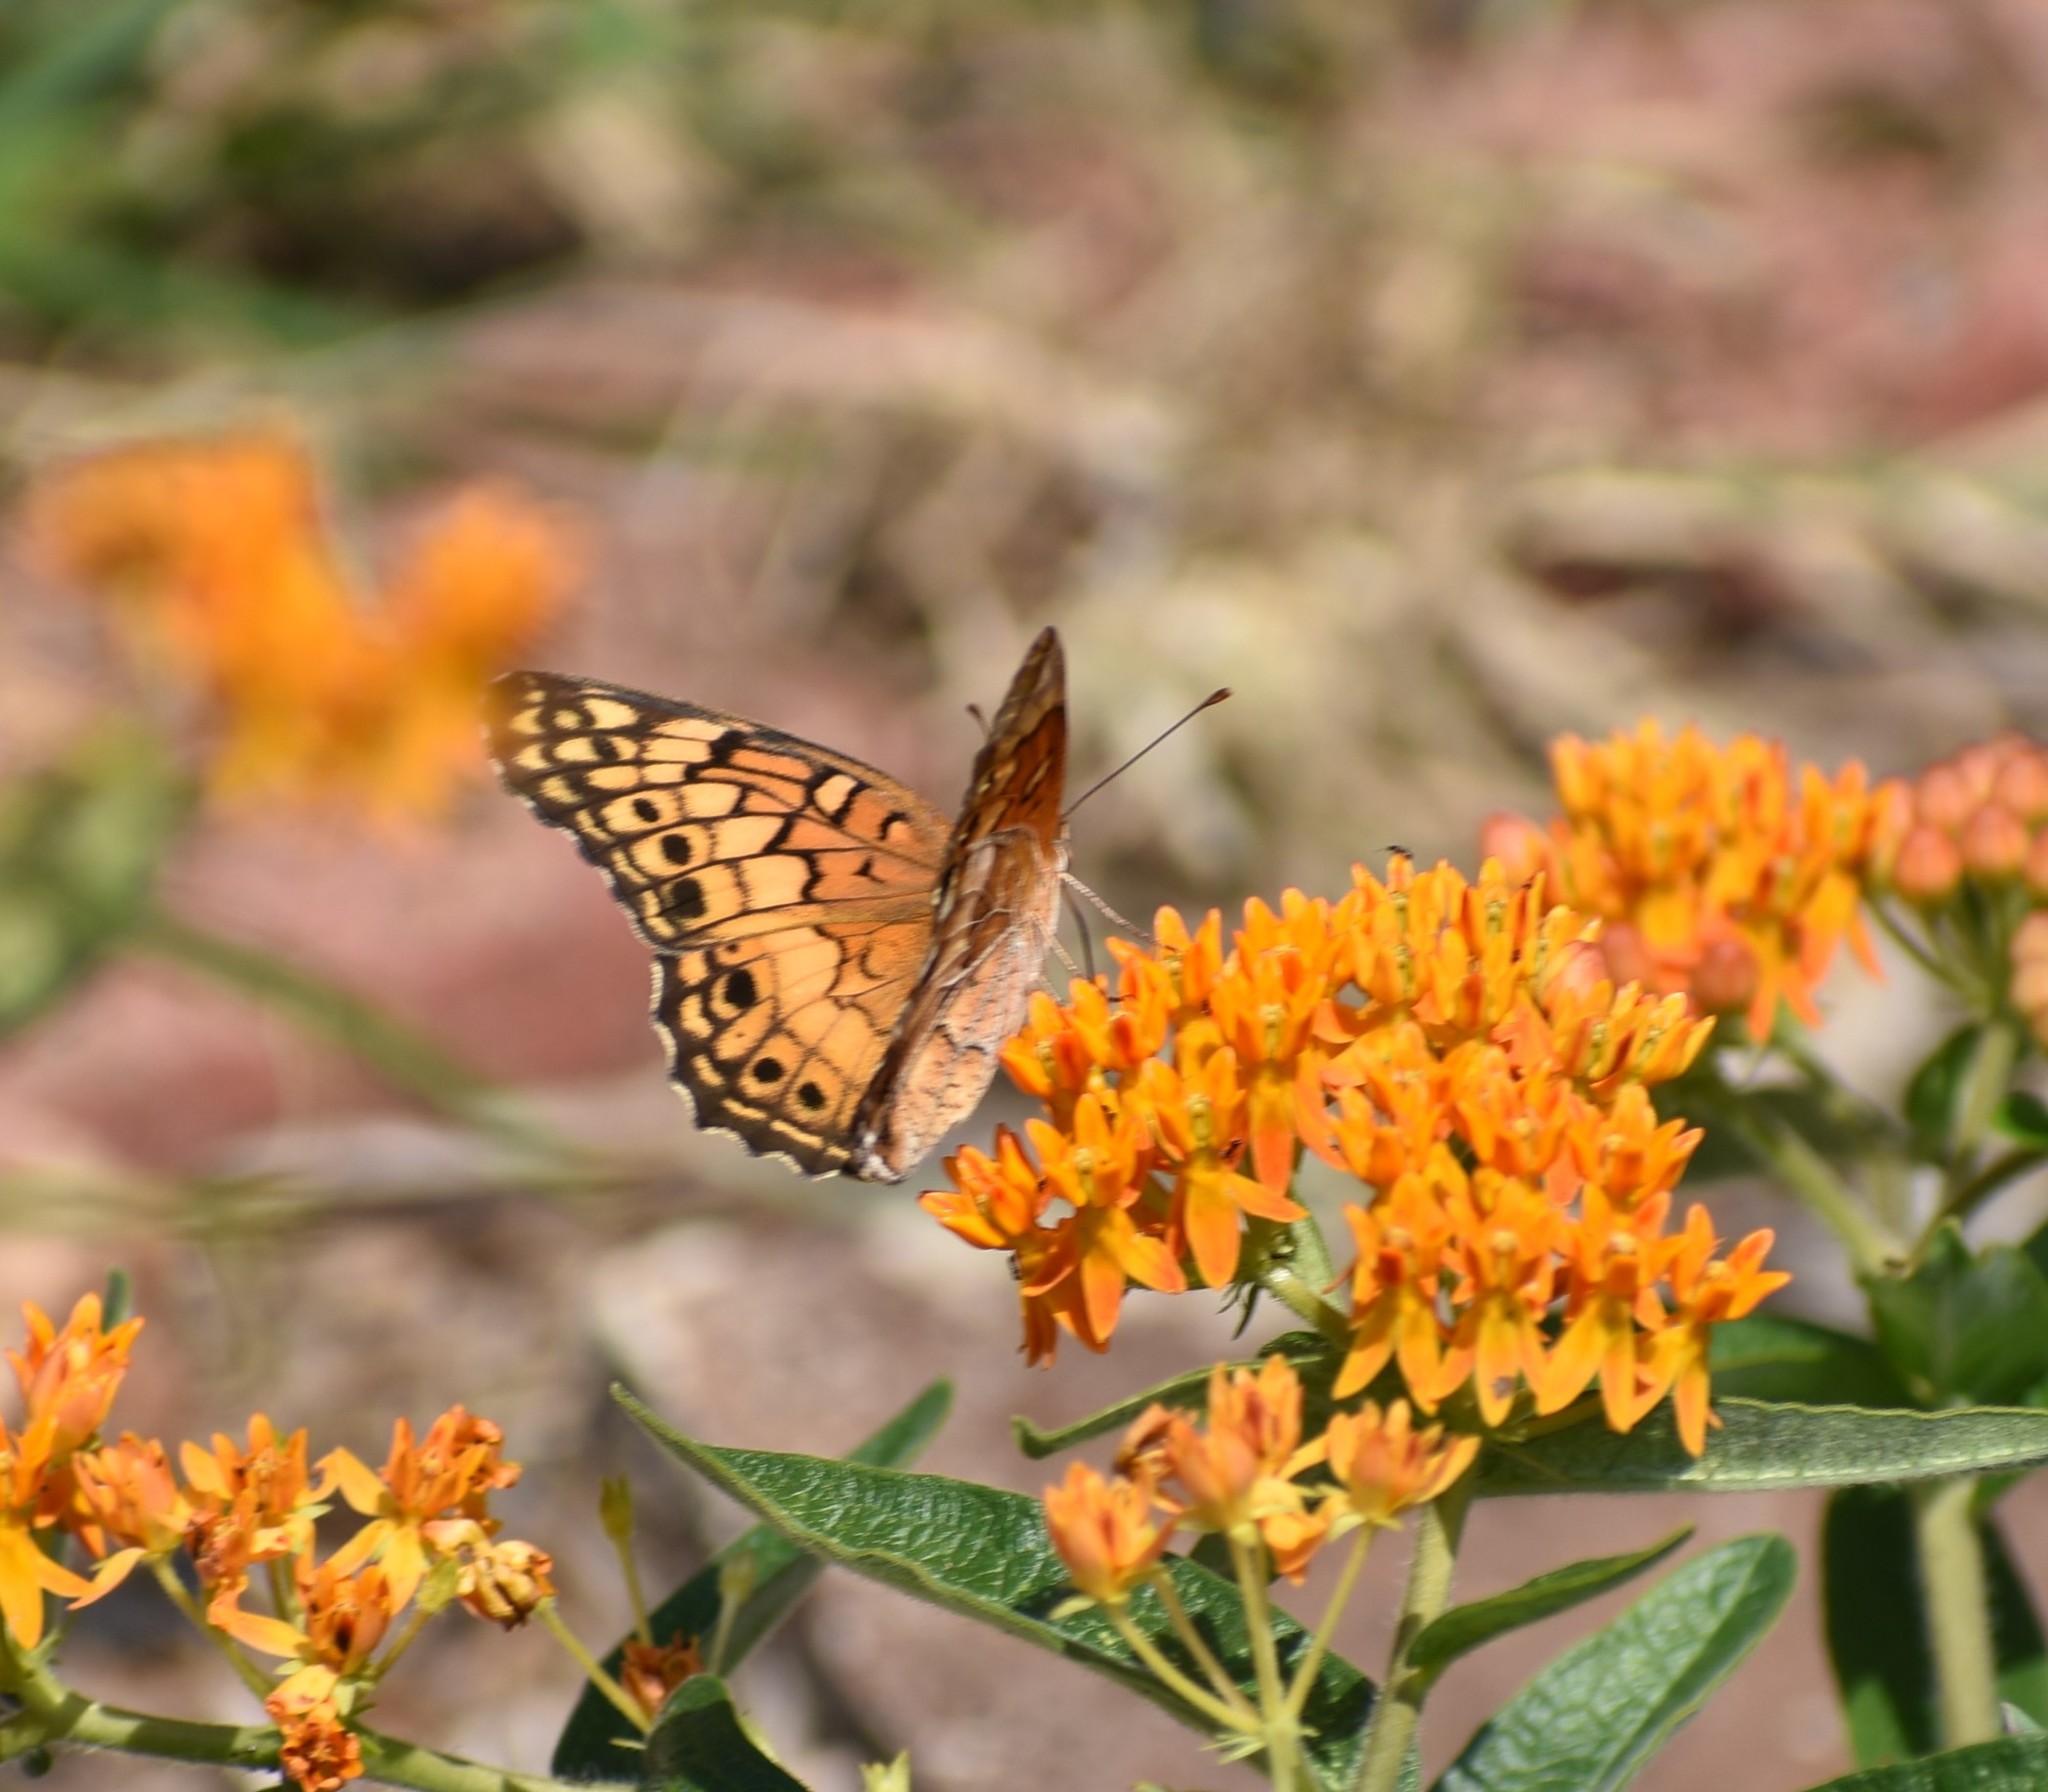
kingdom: Animalia
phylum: Arthropoda
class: Insecta
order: Lepidoptera
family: Nymphalidae
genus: Euptoieta
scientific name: Euptoieta claudia
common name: Variegated fritillary
